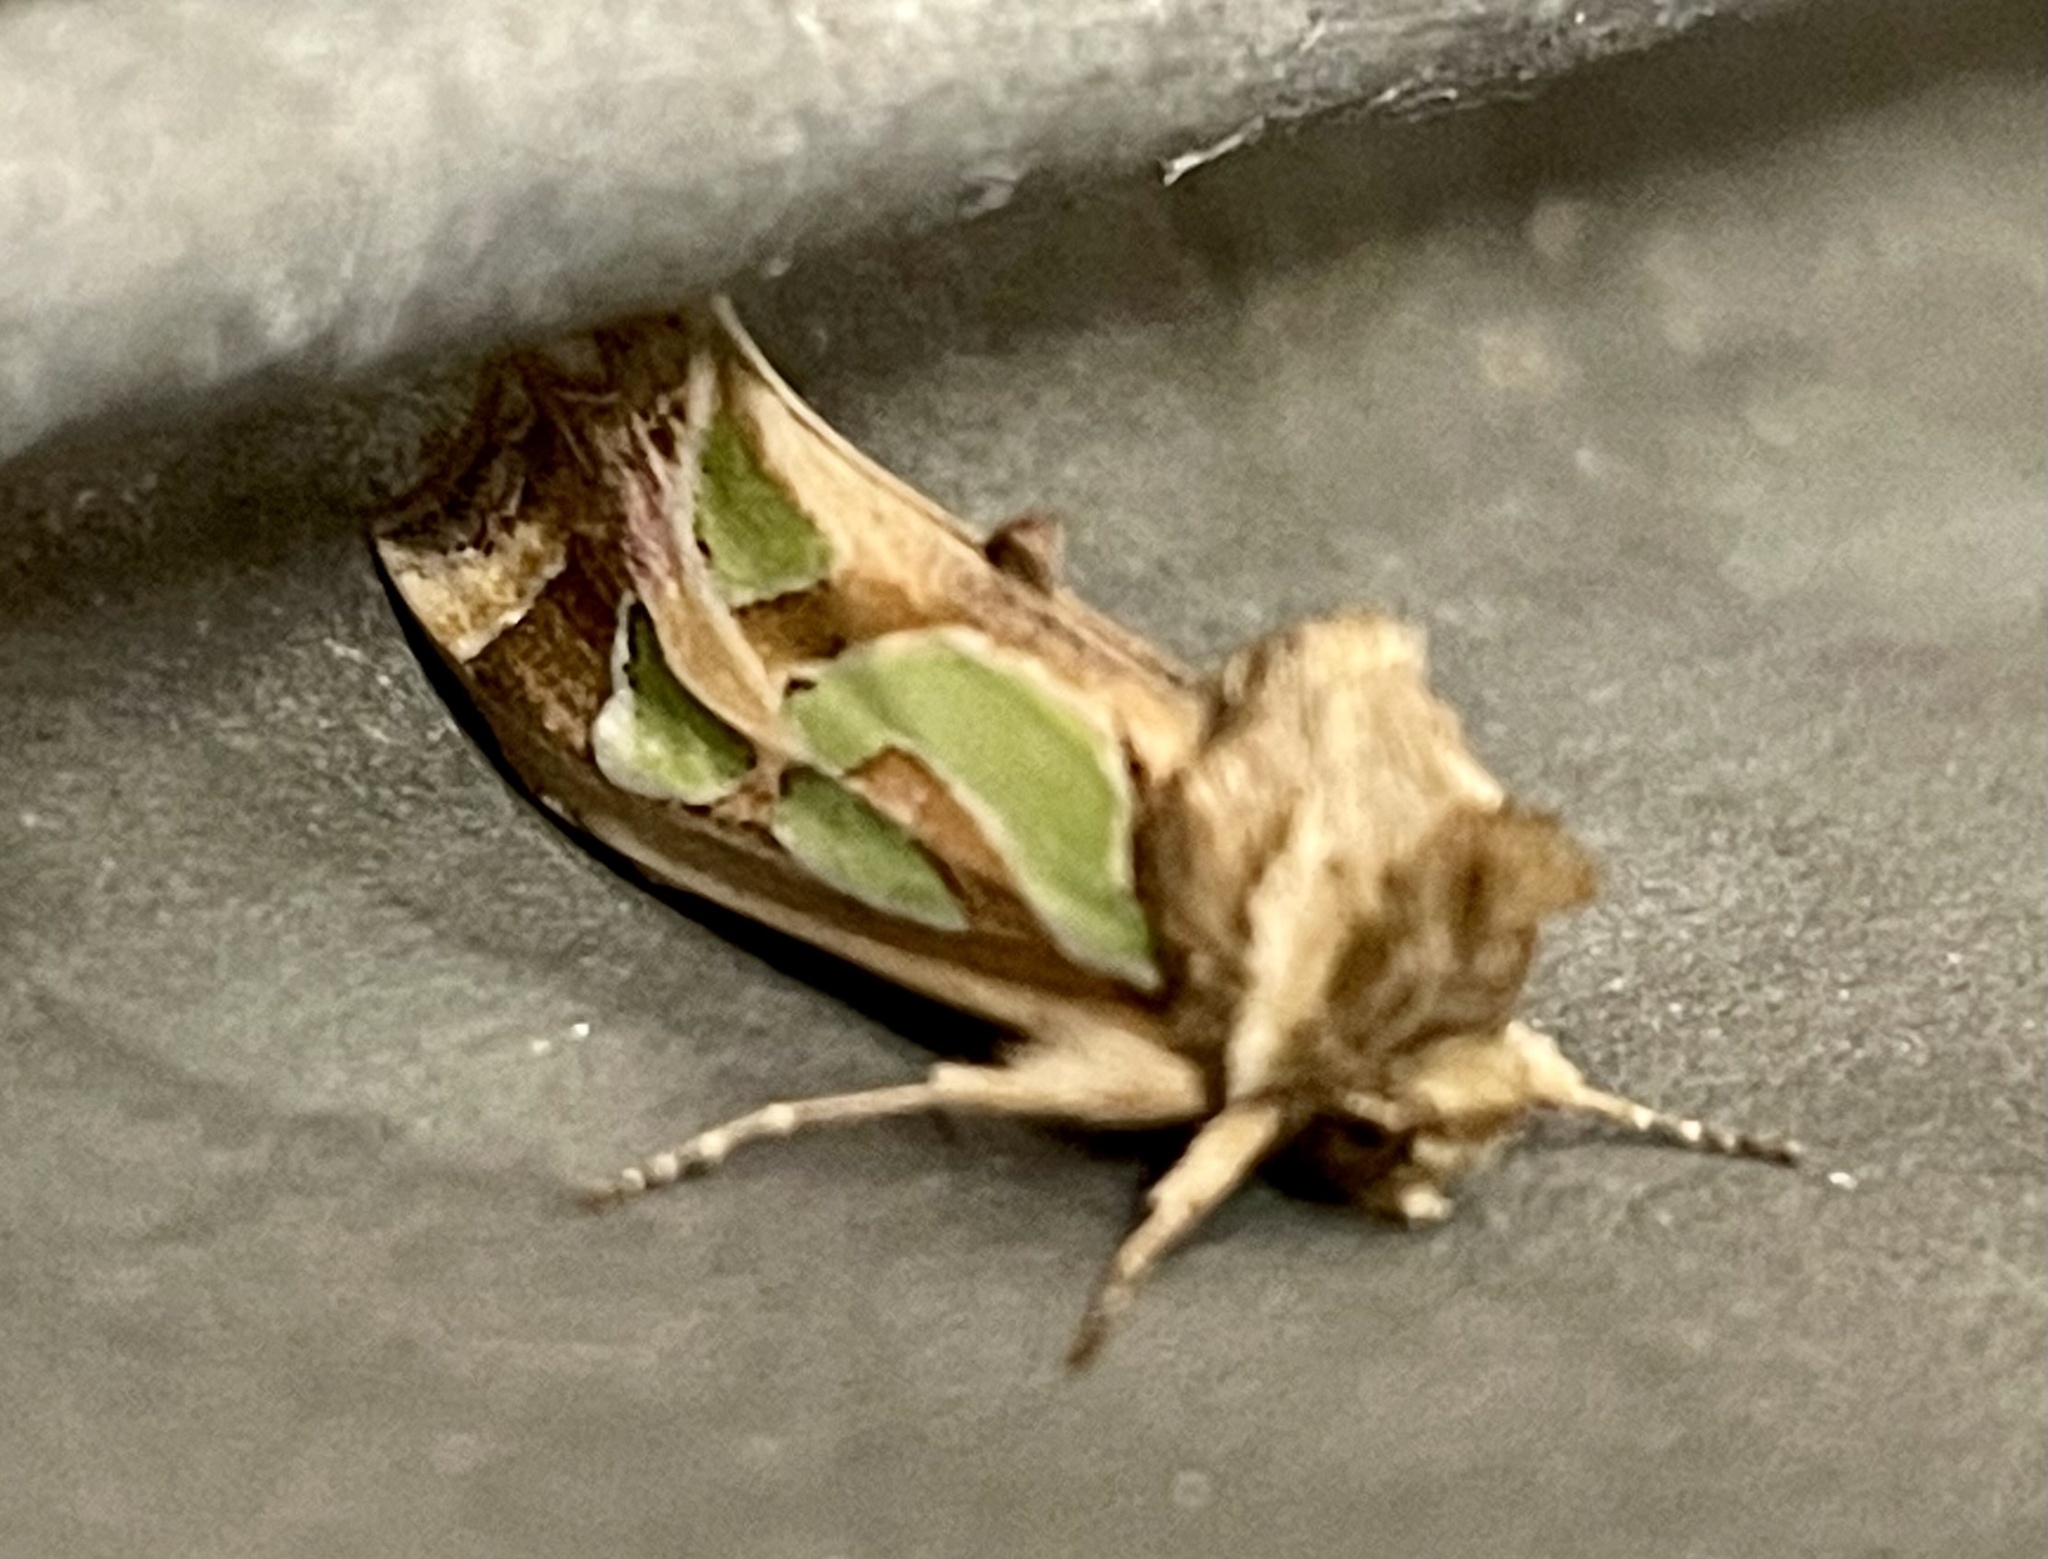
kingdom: Animalia
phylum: Arthropoda
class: Insecta
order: Lepidoptera
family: Noctuidae
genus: Cosmodes
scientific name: Cosmodes elegans
